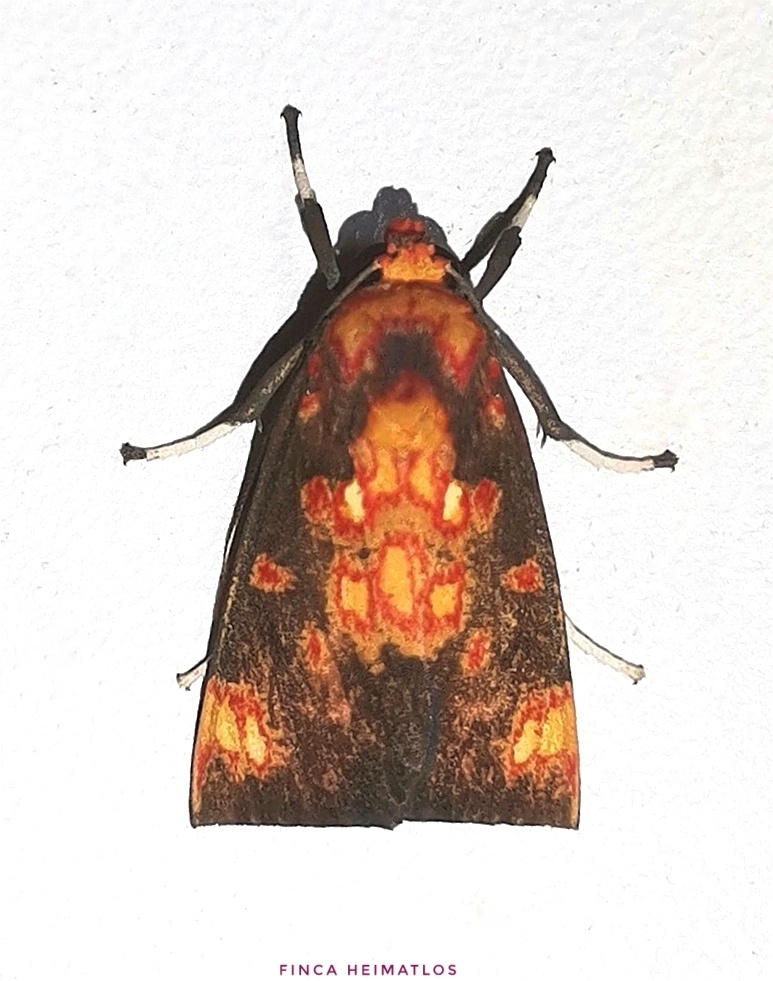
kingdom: Animalia
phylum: Arthropoda
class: Insecta
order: Lepidoptera
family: Erebidae
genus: Melese
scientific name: Melese nebulosa
